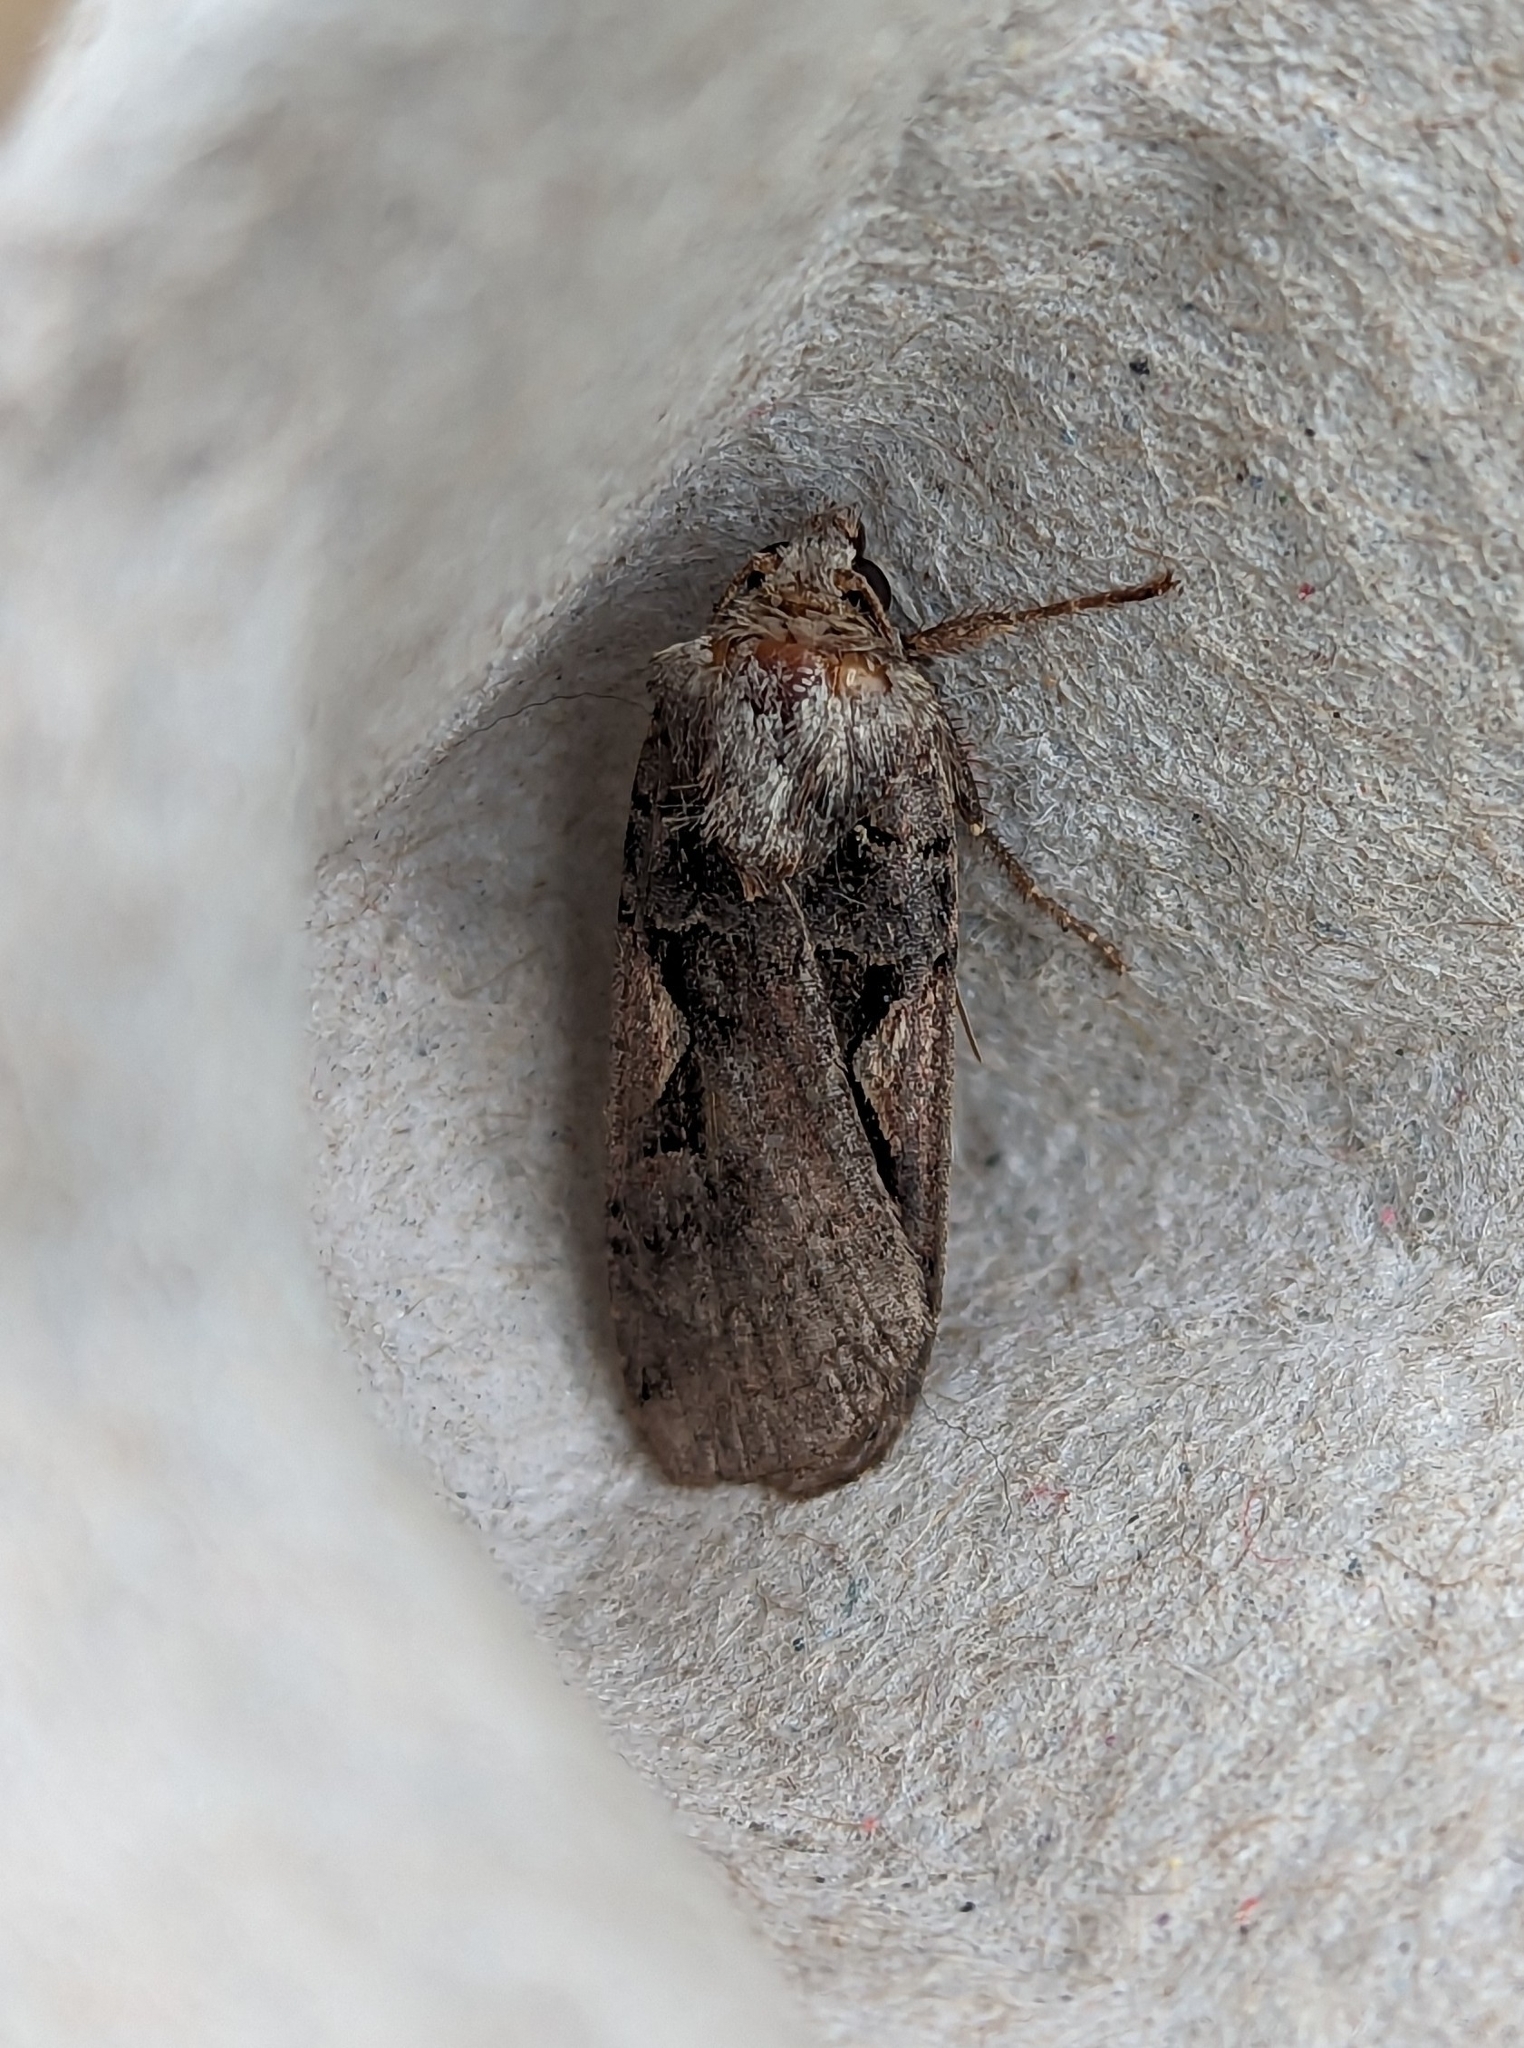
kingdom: Animalia
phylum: Arthropoda
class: Insecta
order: Lepidoptera
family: Noctuidae
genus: Xestia
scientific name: Xestia c-nigrum
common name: Setaceous hebrew character
